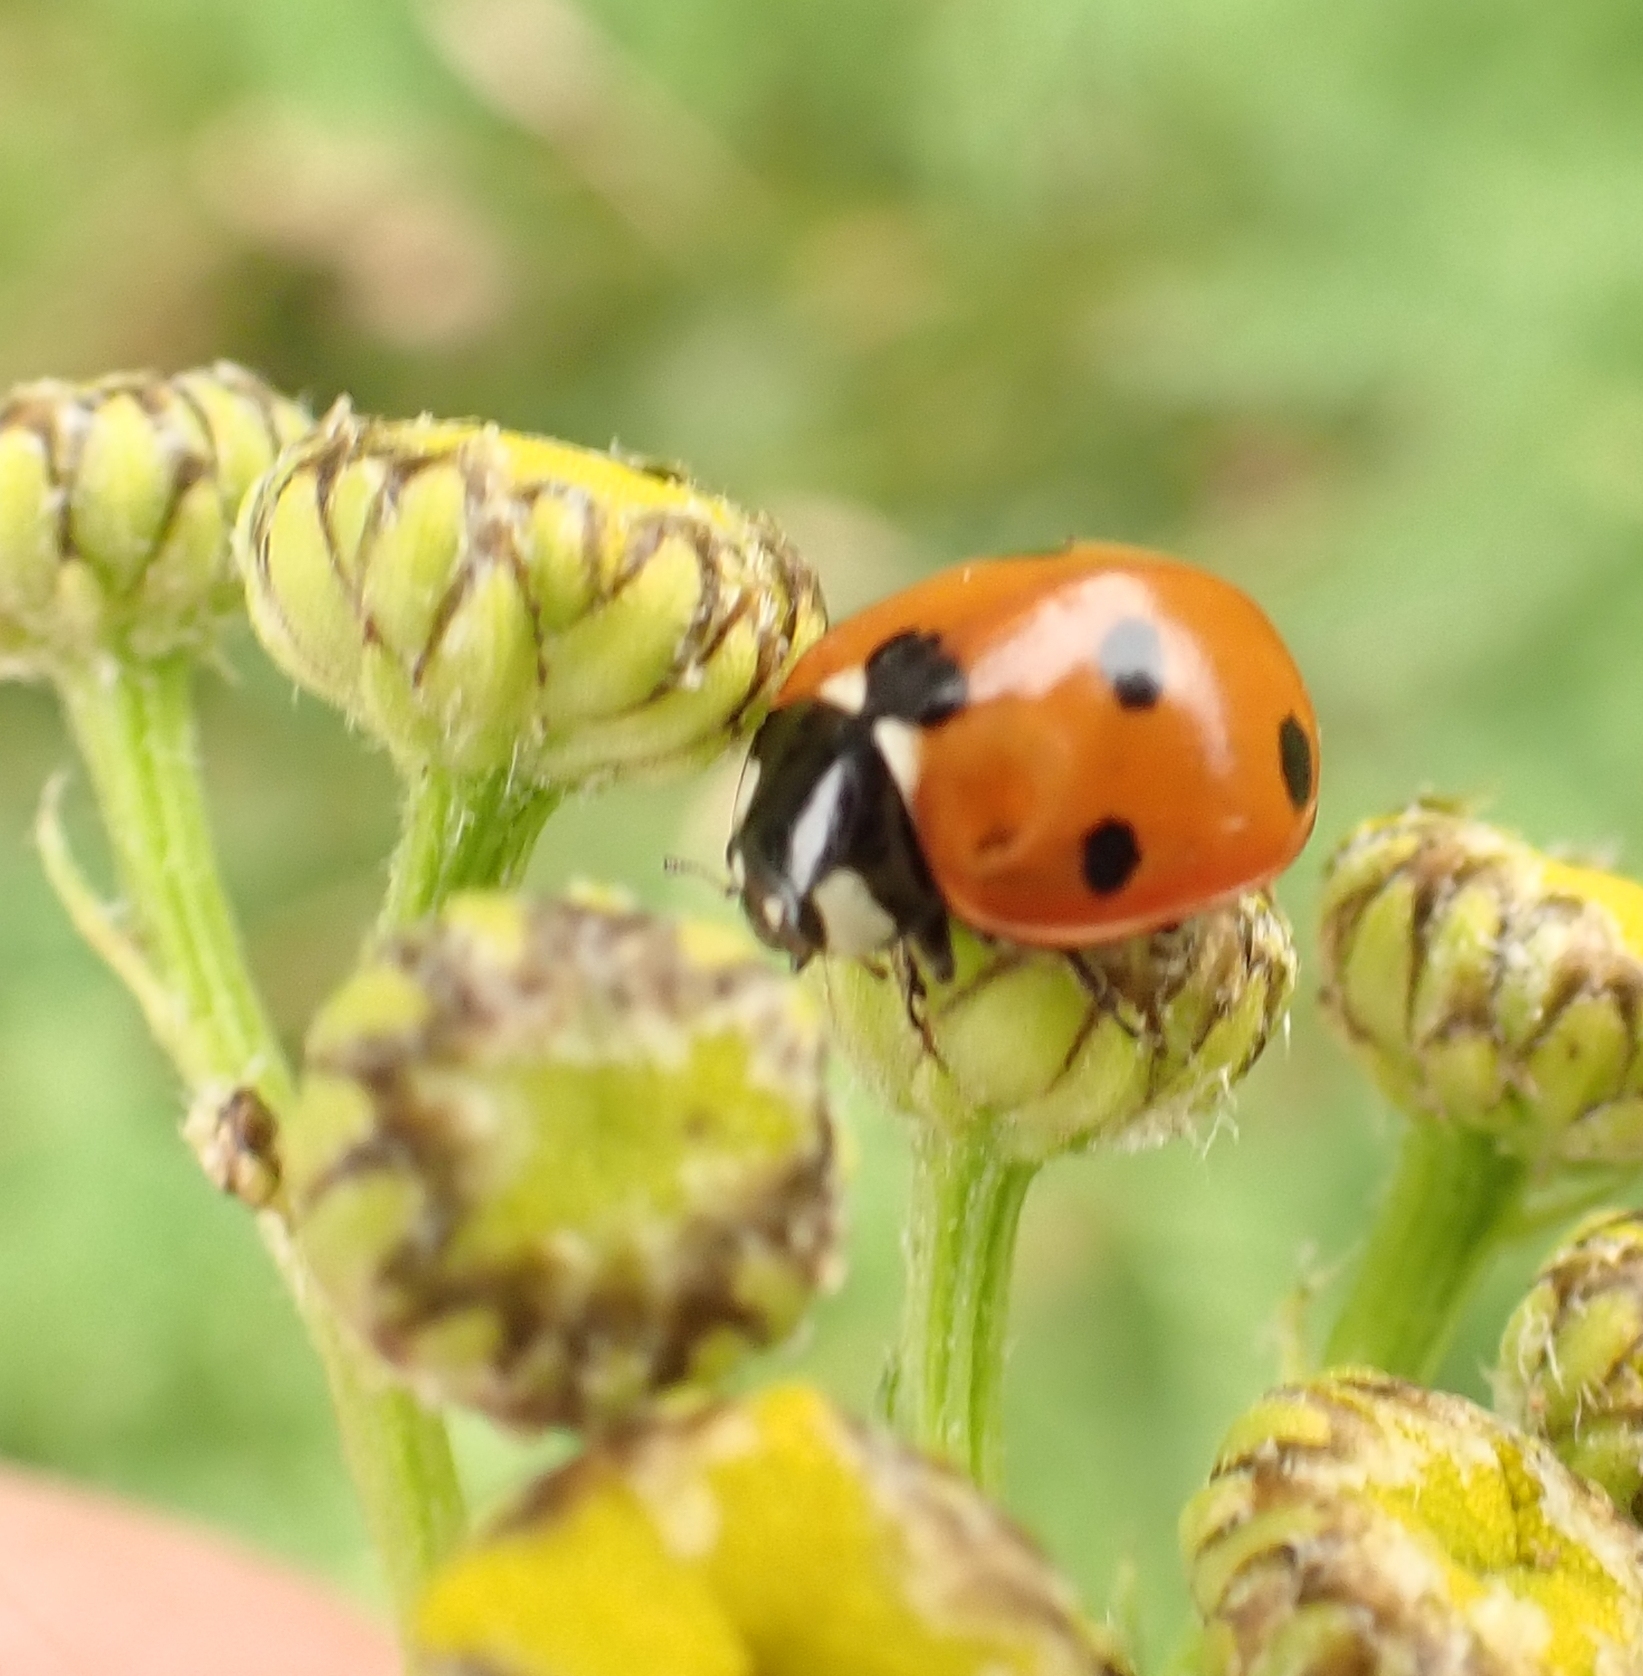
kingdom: Animalia
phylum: Arthropoda
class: Insecta
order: Coleoptera
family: Coccinellidae
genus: Coccinella
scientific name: Coccinella septempunctata
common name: Sevenspotted lady beetle
